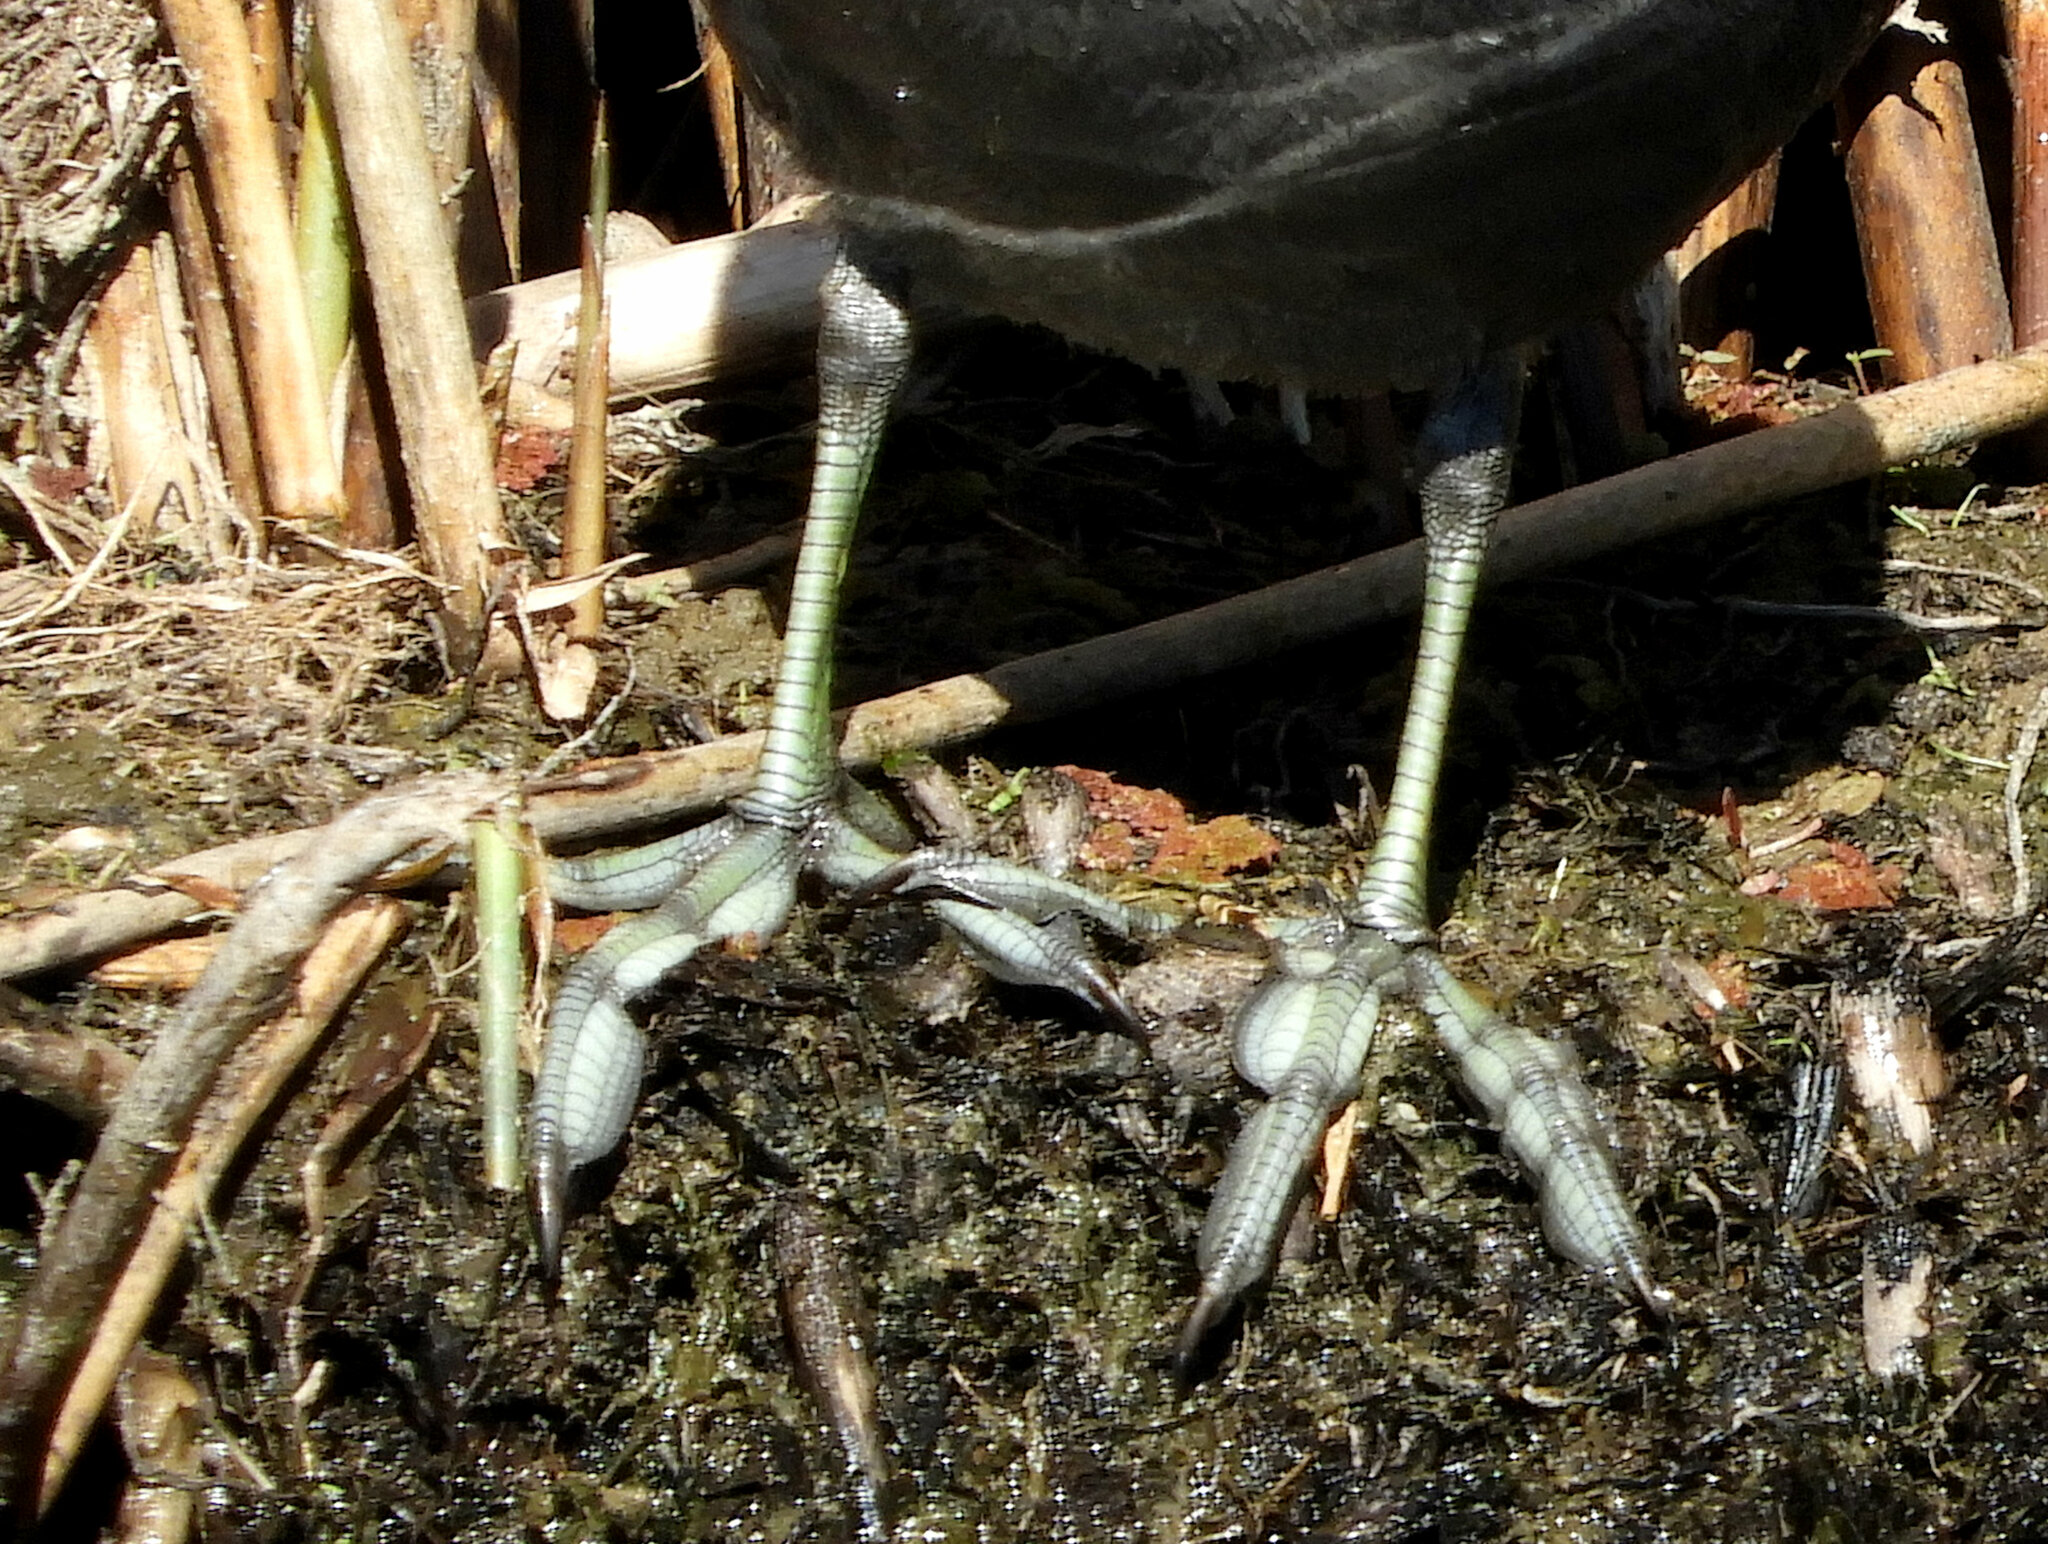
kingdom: Animalia
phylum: Chordata
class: Aves
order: Gruiformes
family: Rallidae
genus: Fulica
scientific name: Fulica americana
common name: American coot
